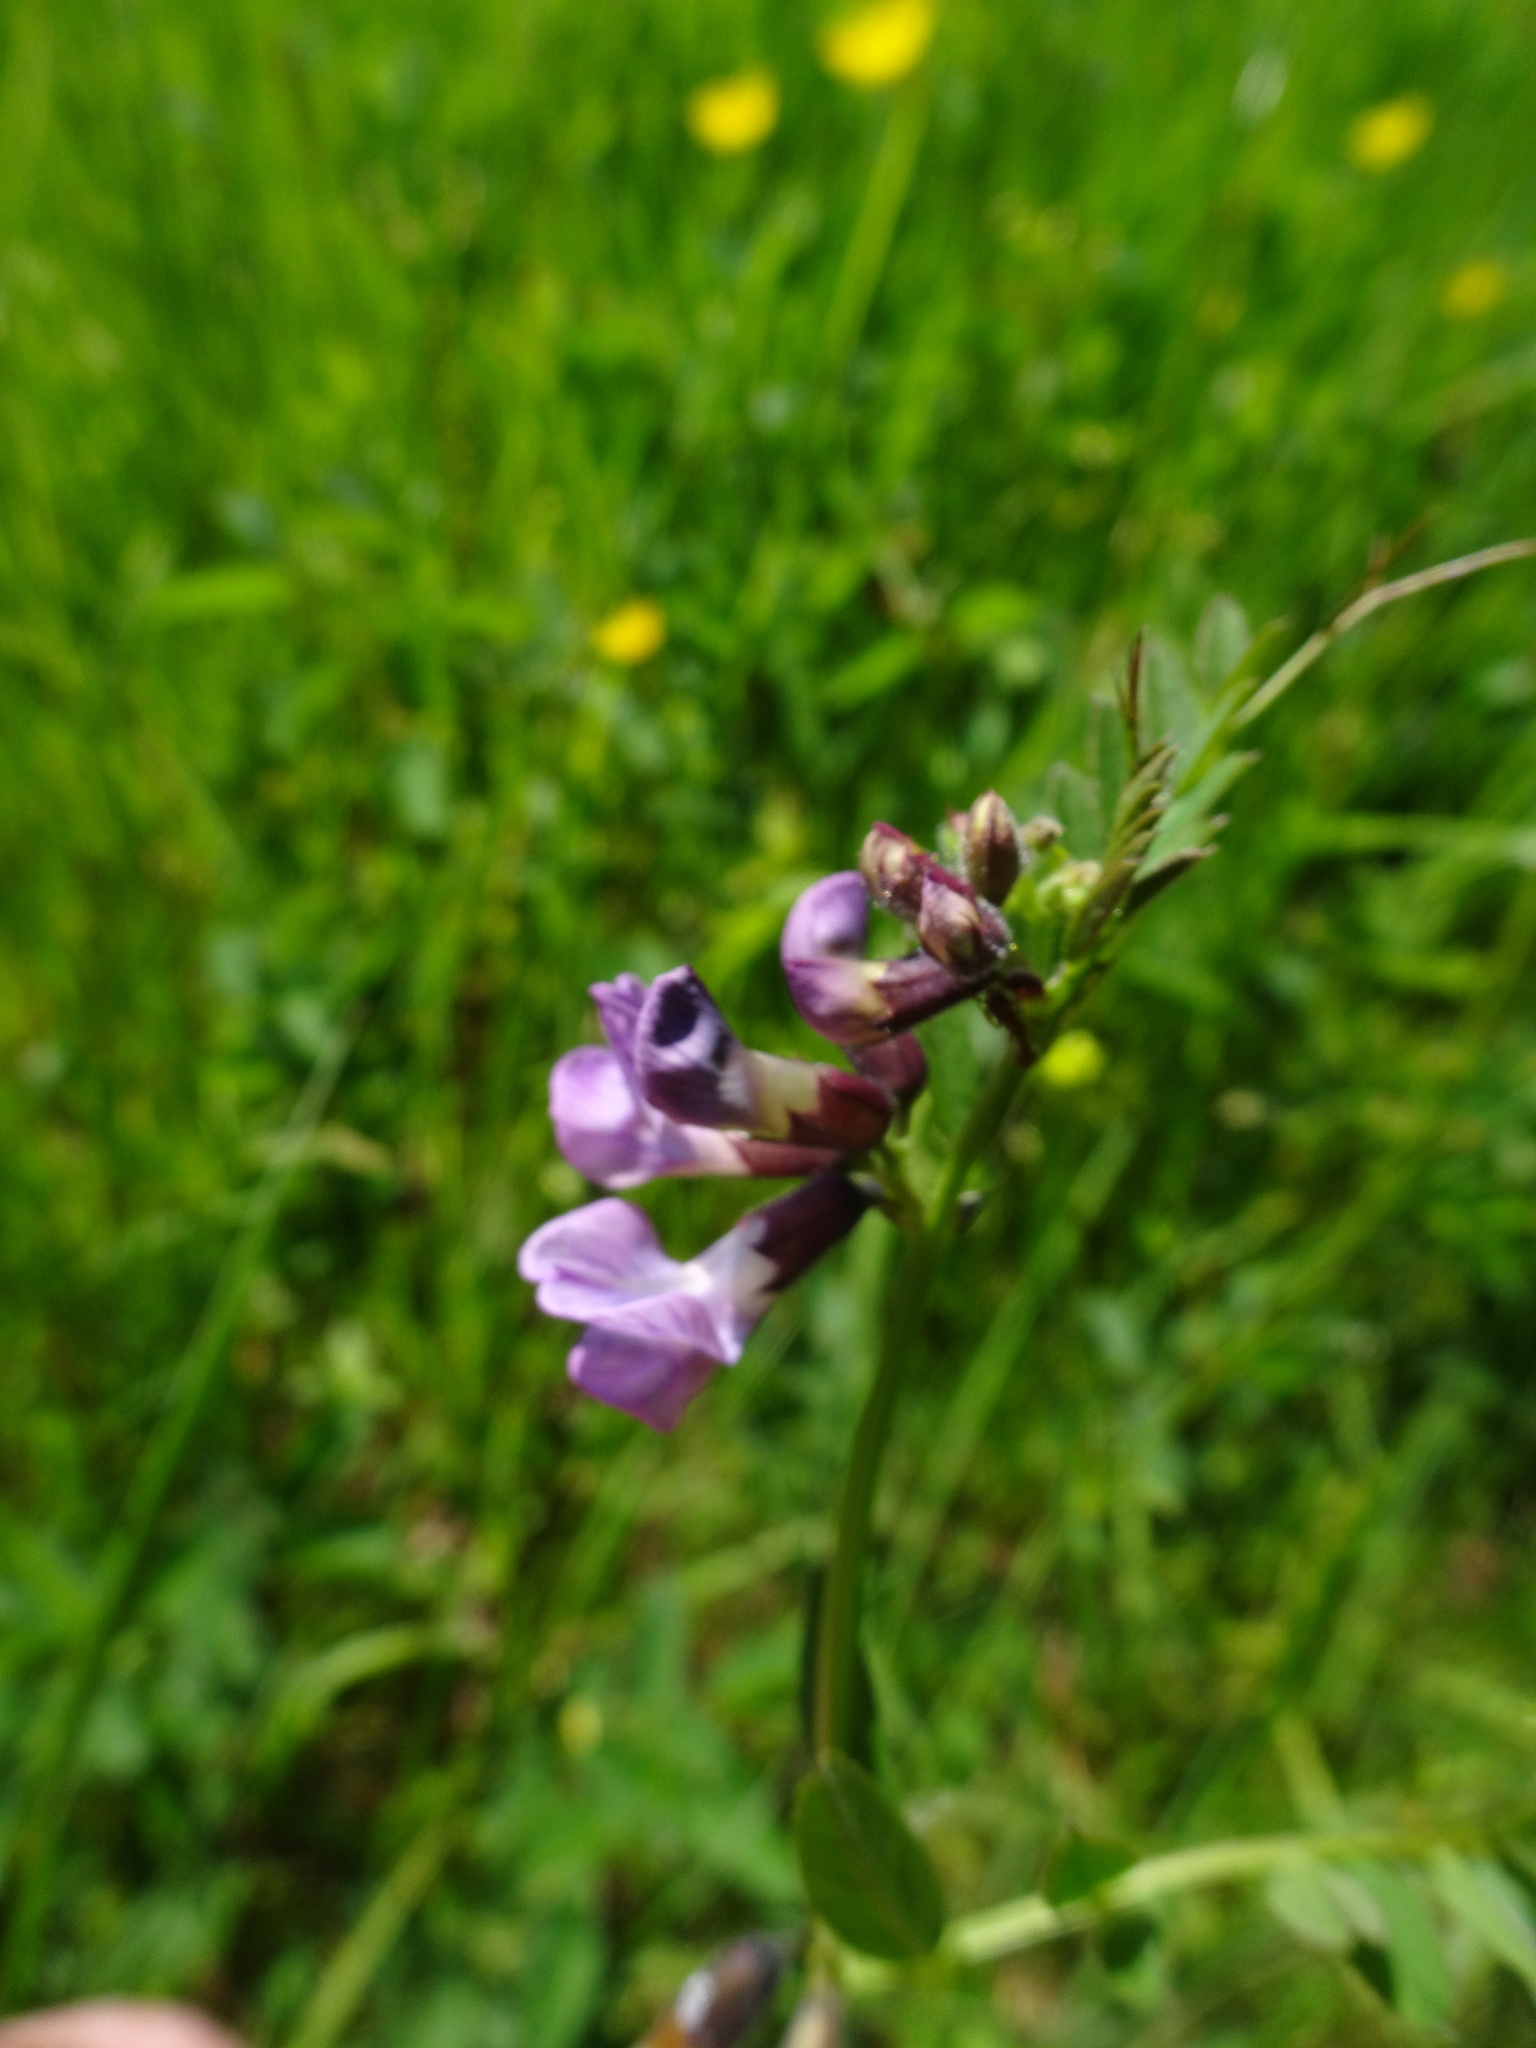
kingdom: Plantae
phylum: Tracheophyta
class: Magnoliopsida
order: Fabales
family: Fabaceae
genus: Vicia
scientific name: Vicia sepium
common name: Bush vetch
